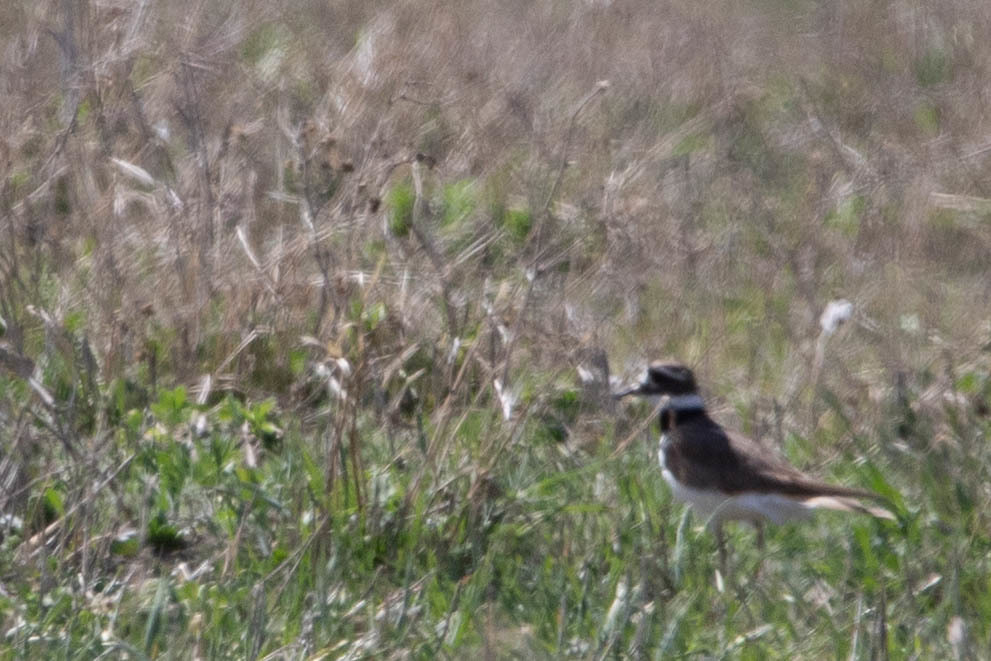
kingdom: Animalia
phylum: Chordata
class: Aves
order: Charadriiformes
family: Charadriidae
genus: Charadrius
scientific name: Charadrius vociferus
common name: Killdeer
